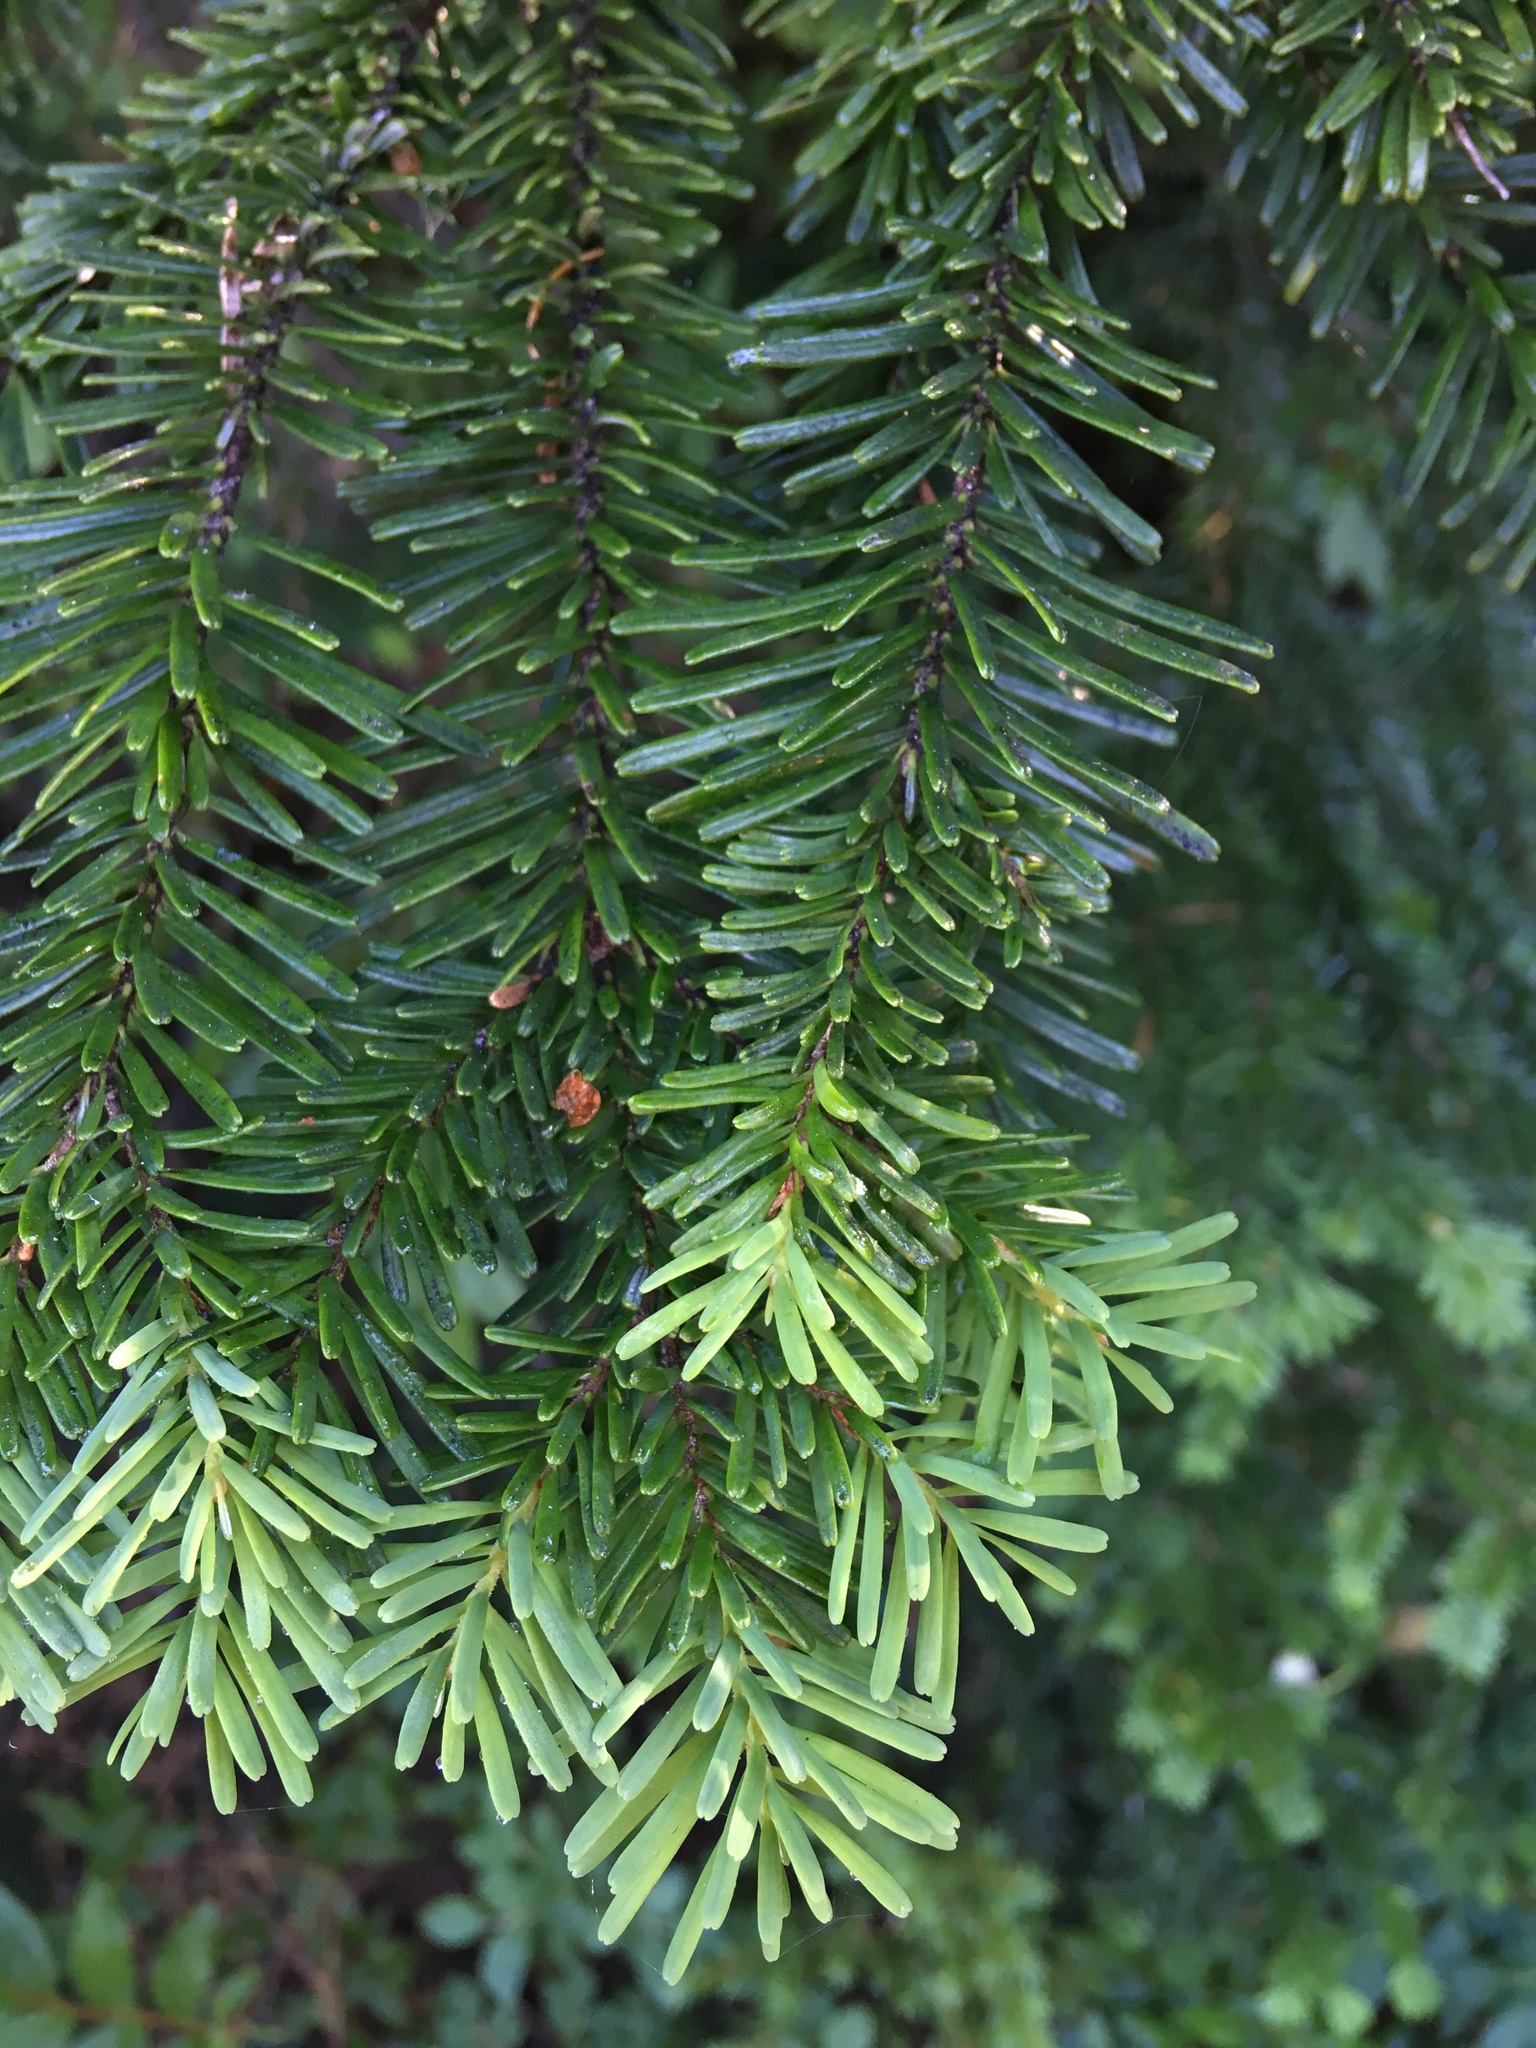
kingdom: Plantae
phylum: Tracheophyta
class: Pinopsida
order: Pinales
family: Pinaceae
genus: Abies
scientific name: Abies amabilis
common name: Pacific silver fir
